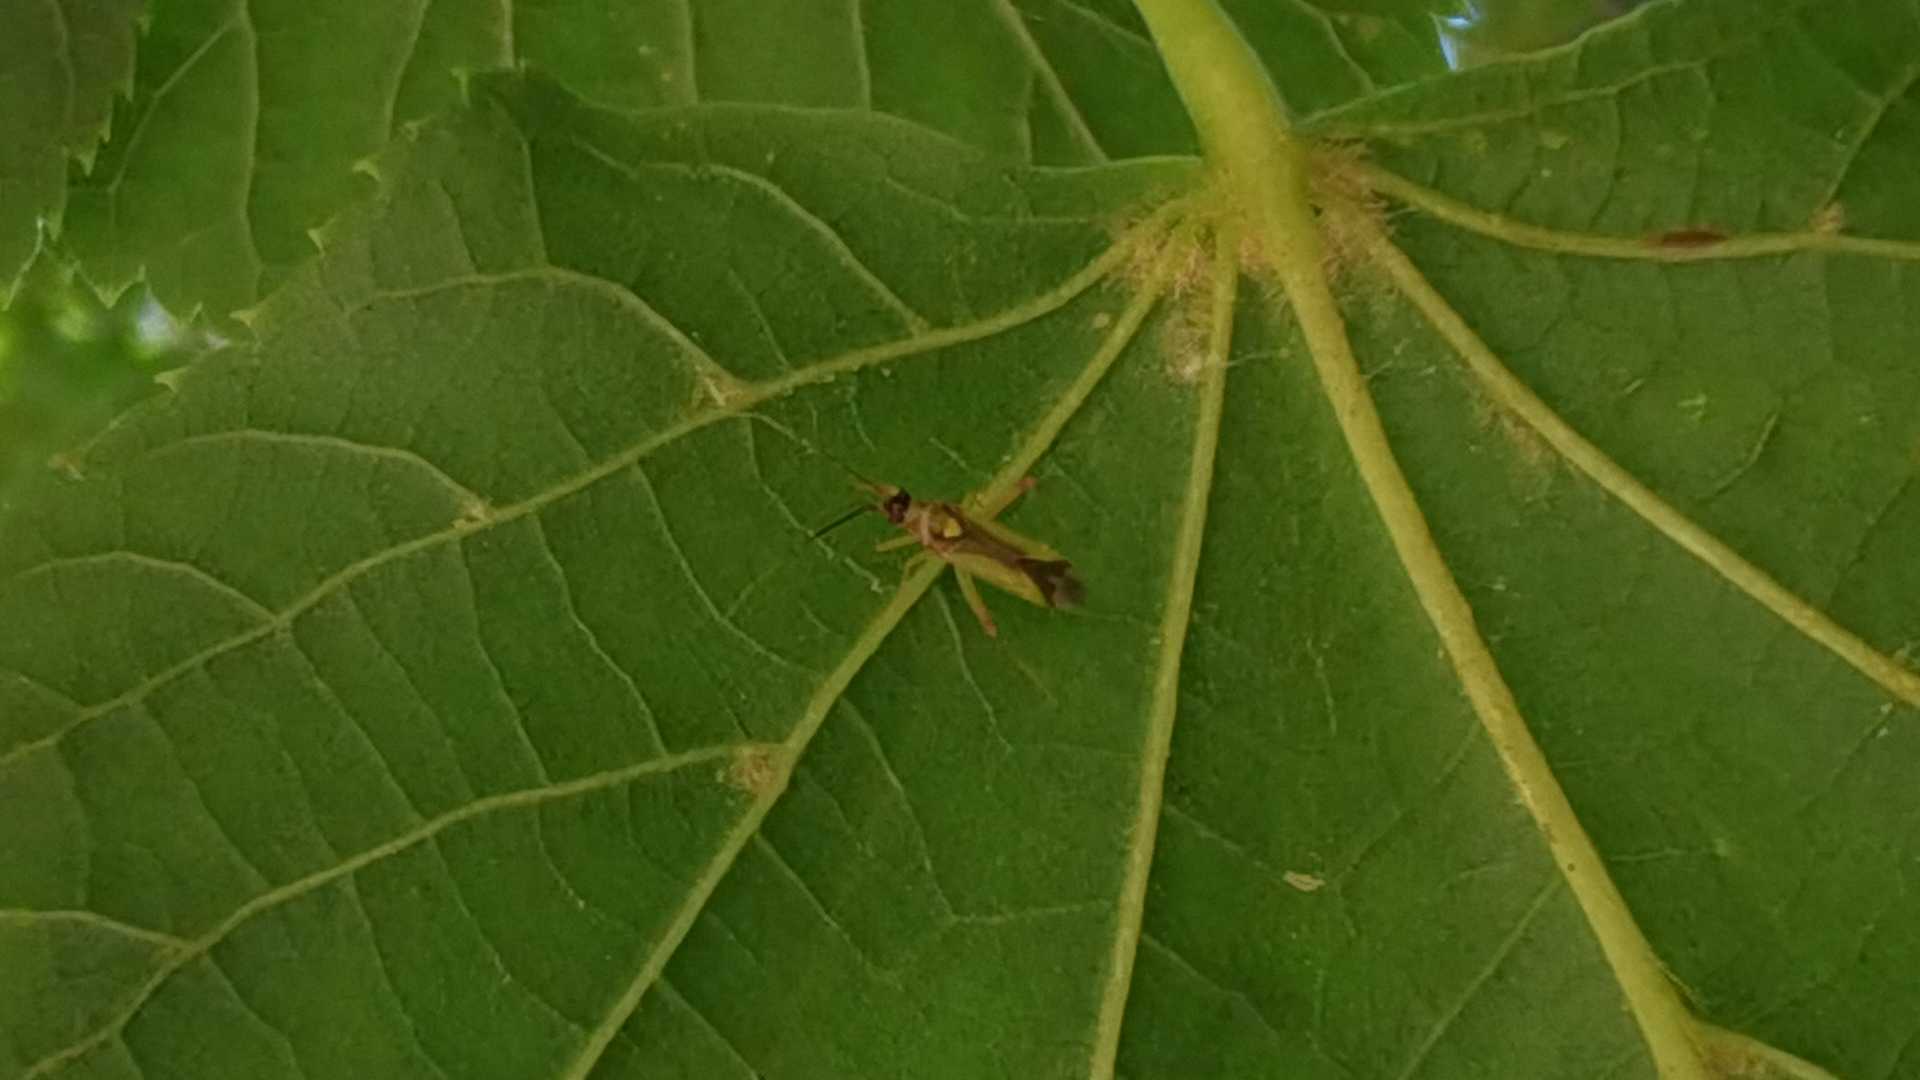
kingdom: Animalia
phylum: Arthropoda
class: Insecta
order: Hemiptera
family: Miridae
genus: Campyloneura
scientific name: Campyloneura virgula
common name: Predatory bug
